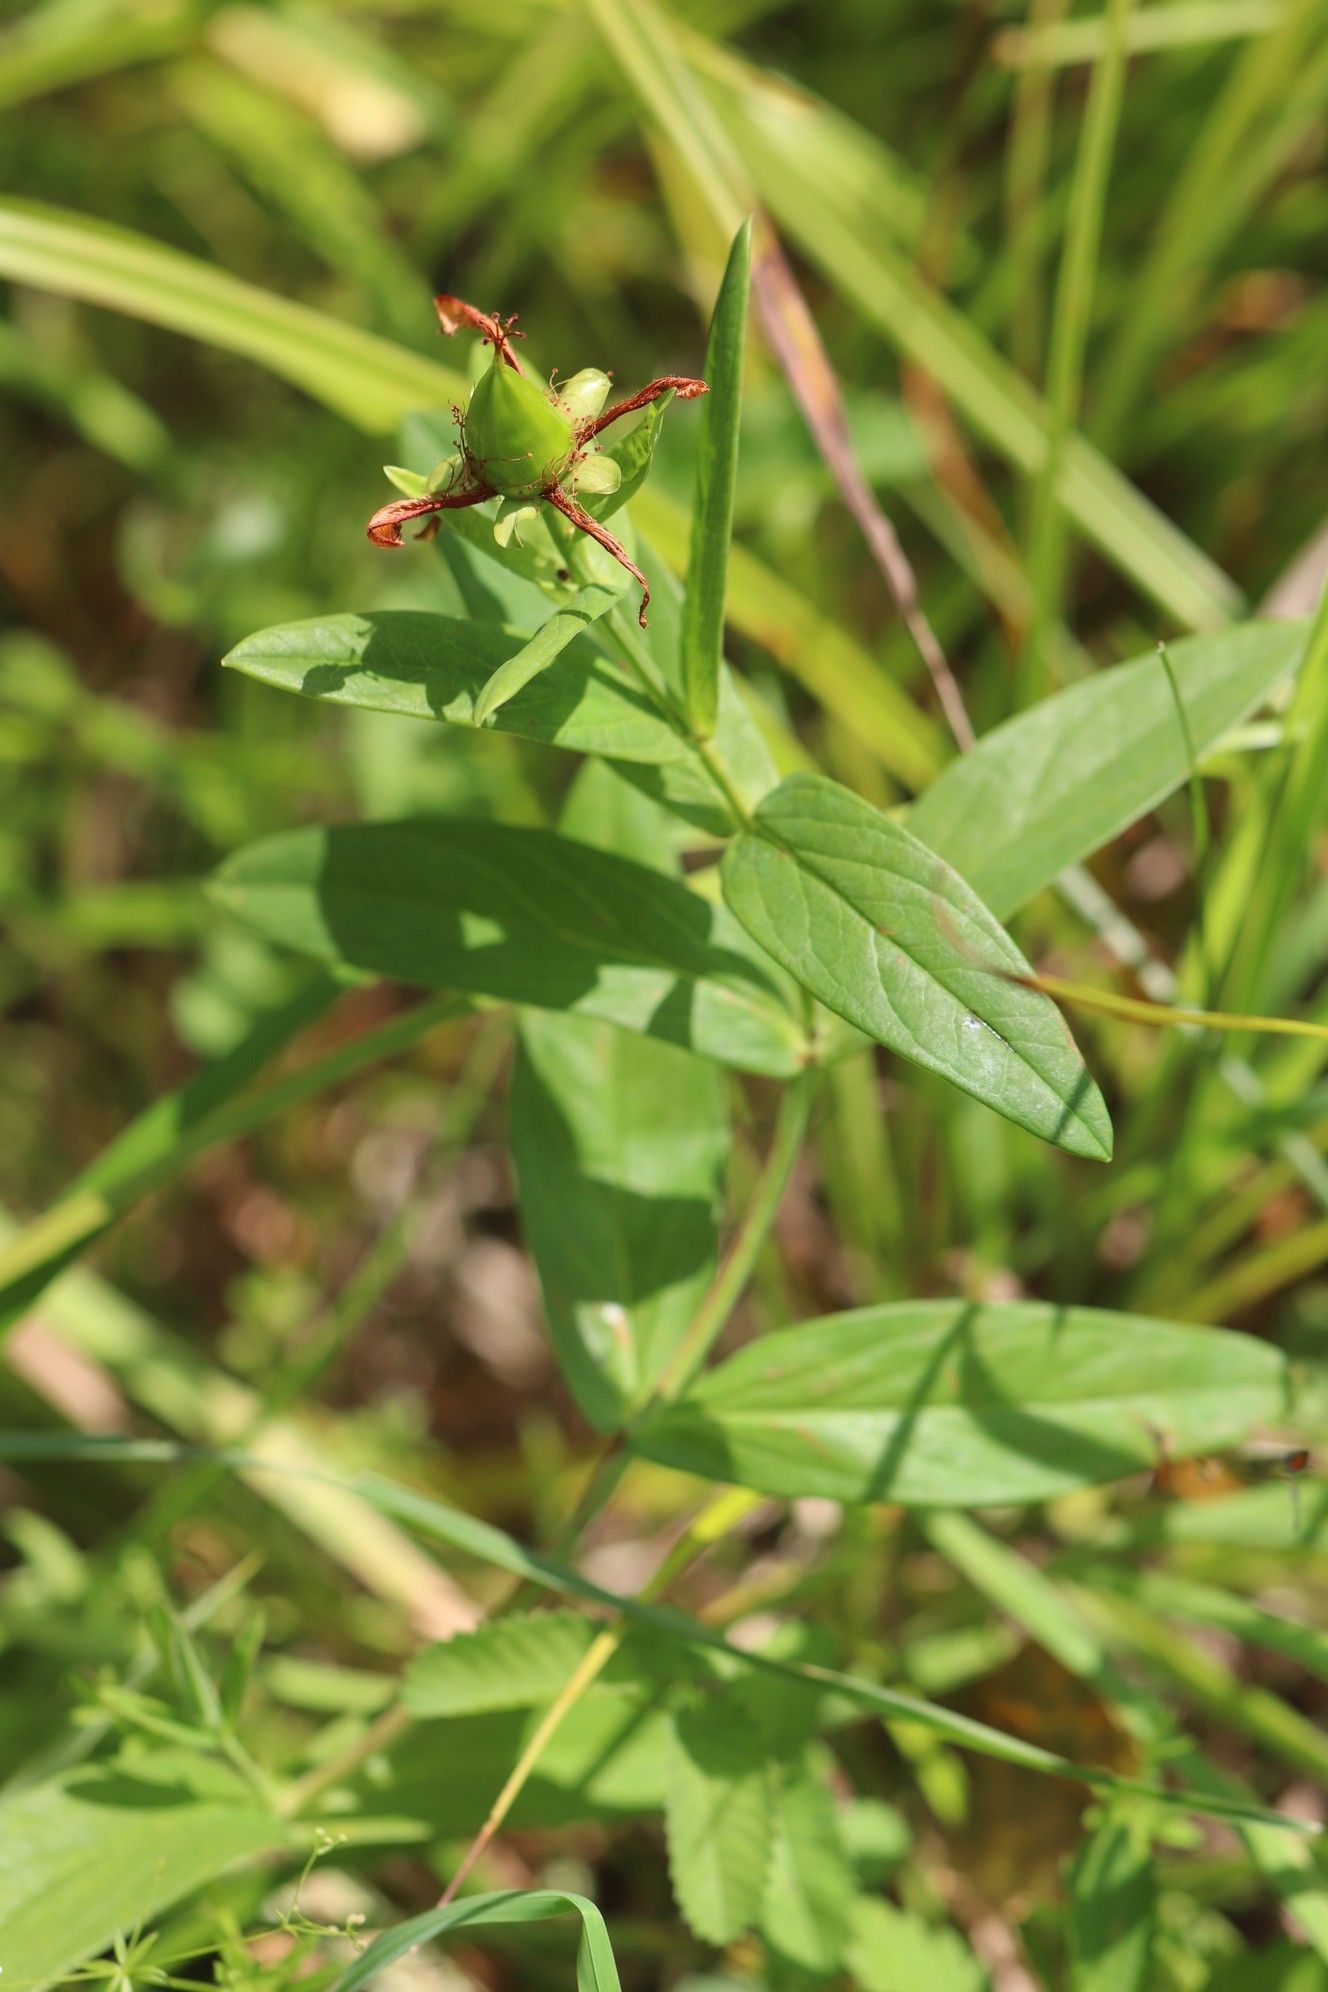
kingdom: Plantae
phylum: Tracheophyta
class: Magnoliopsida
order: Malpighiales
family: Hypericaceae
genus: Hypericum
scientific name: Hypericum ascyron
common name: Giant st. john's-wort
